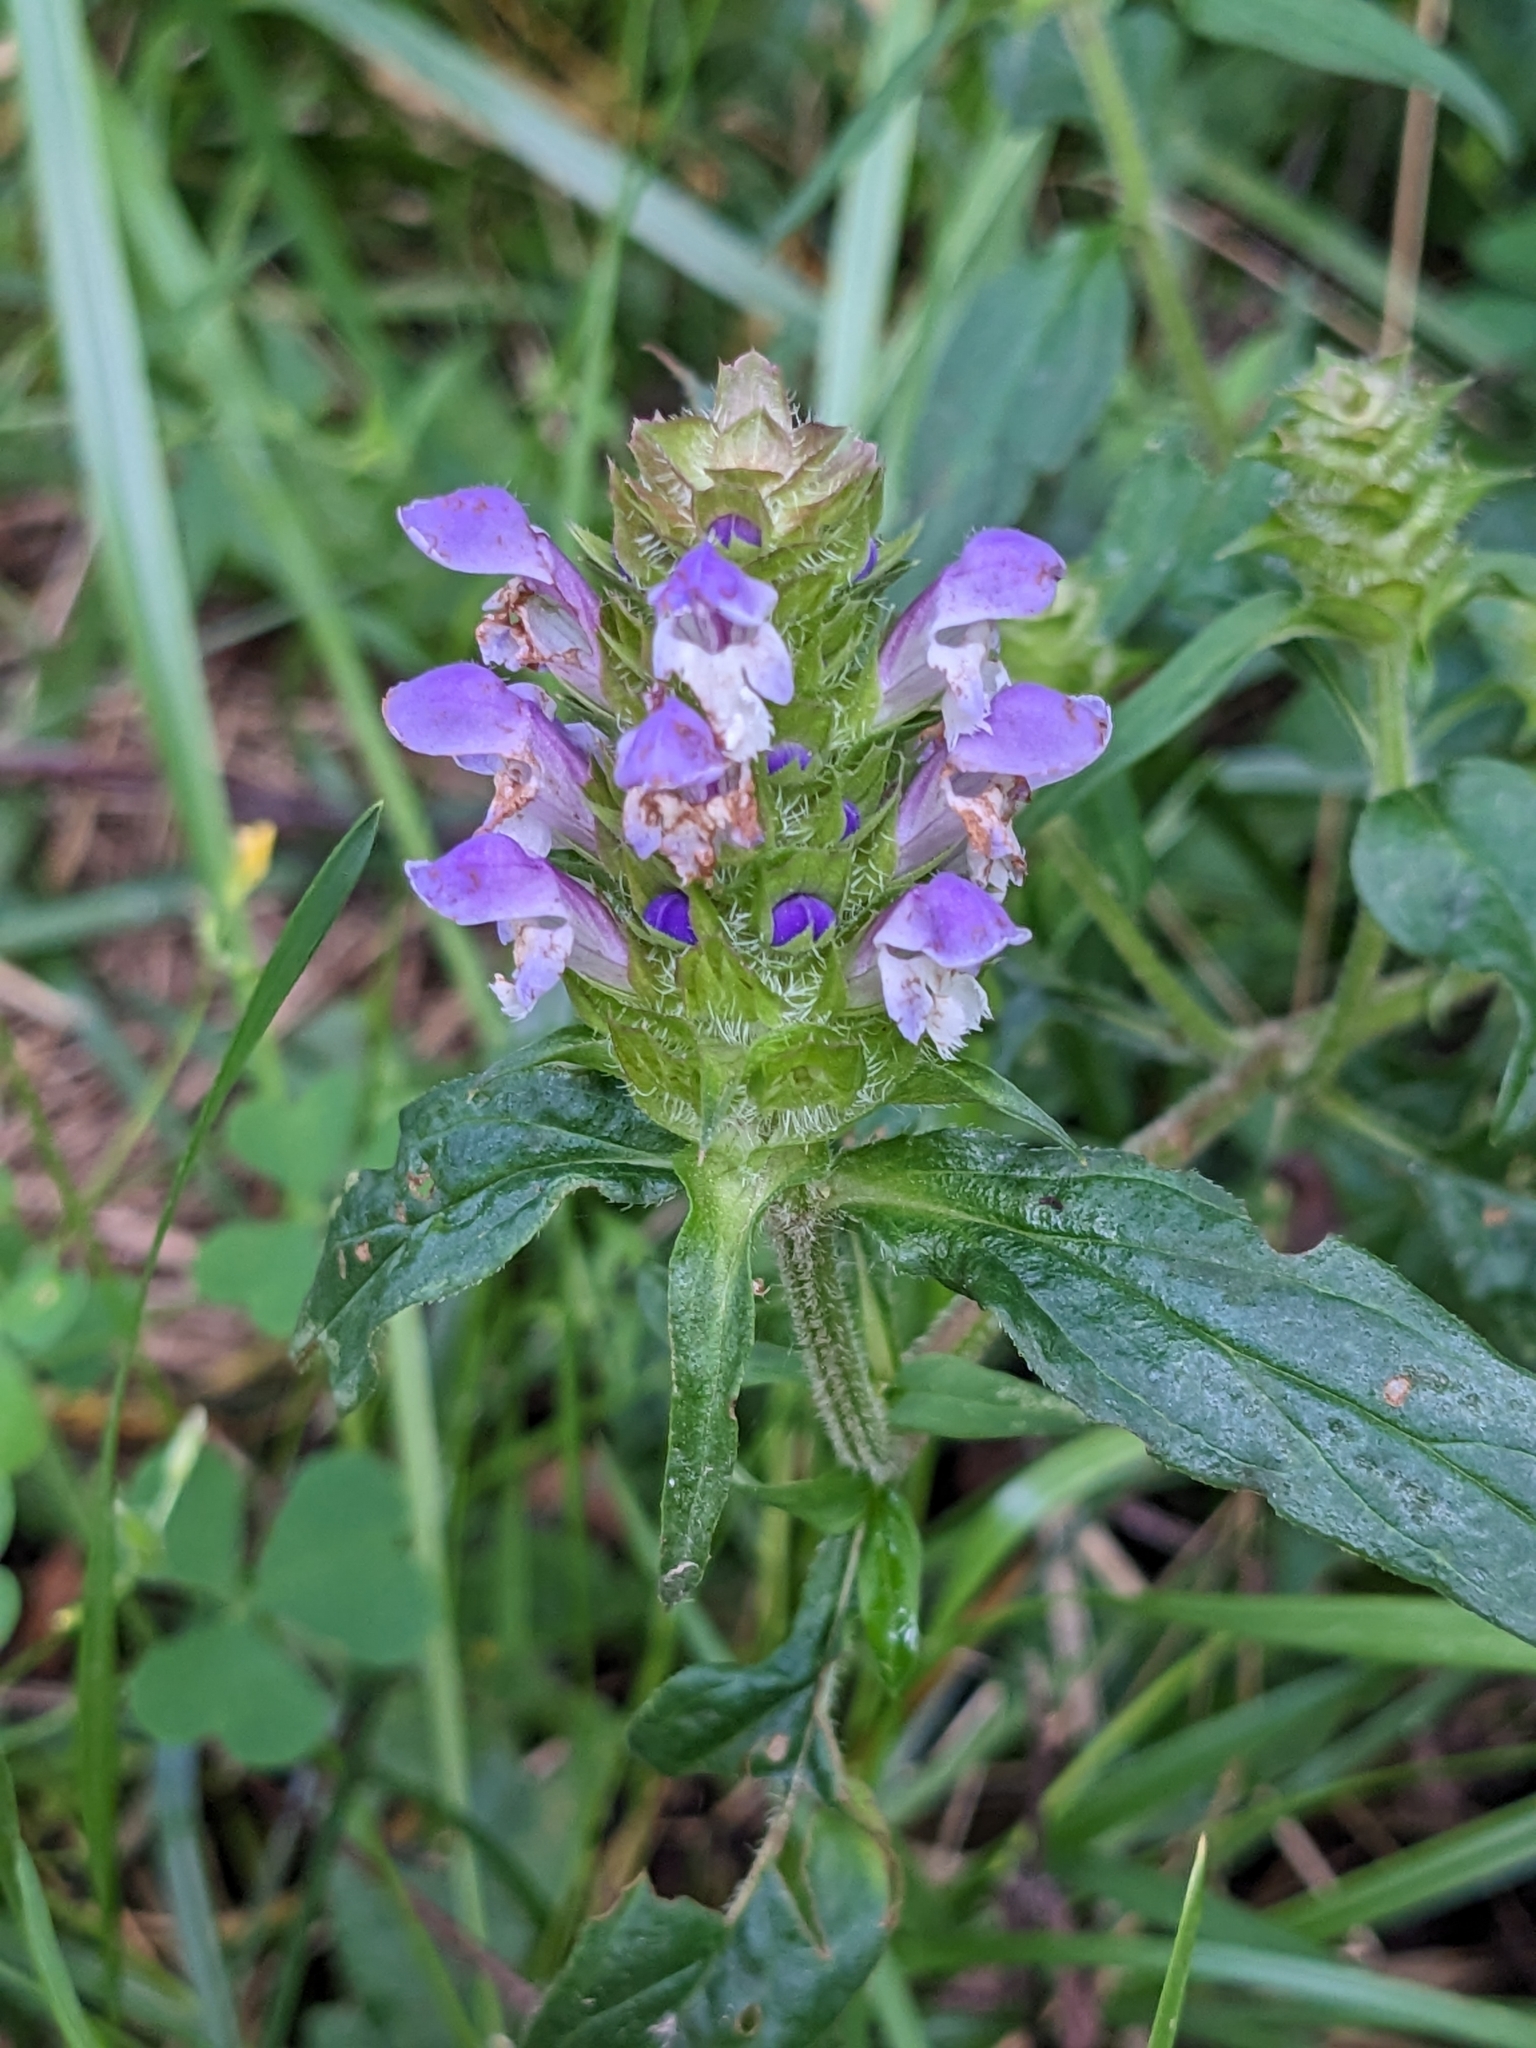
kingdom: Plantae
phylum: Tracheophyta
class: Magnoliopsida
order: Lamiales
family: Lamiaceae
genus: Prunella
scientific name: Prunella vulgaris
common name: Heal-all
